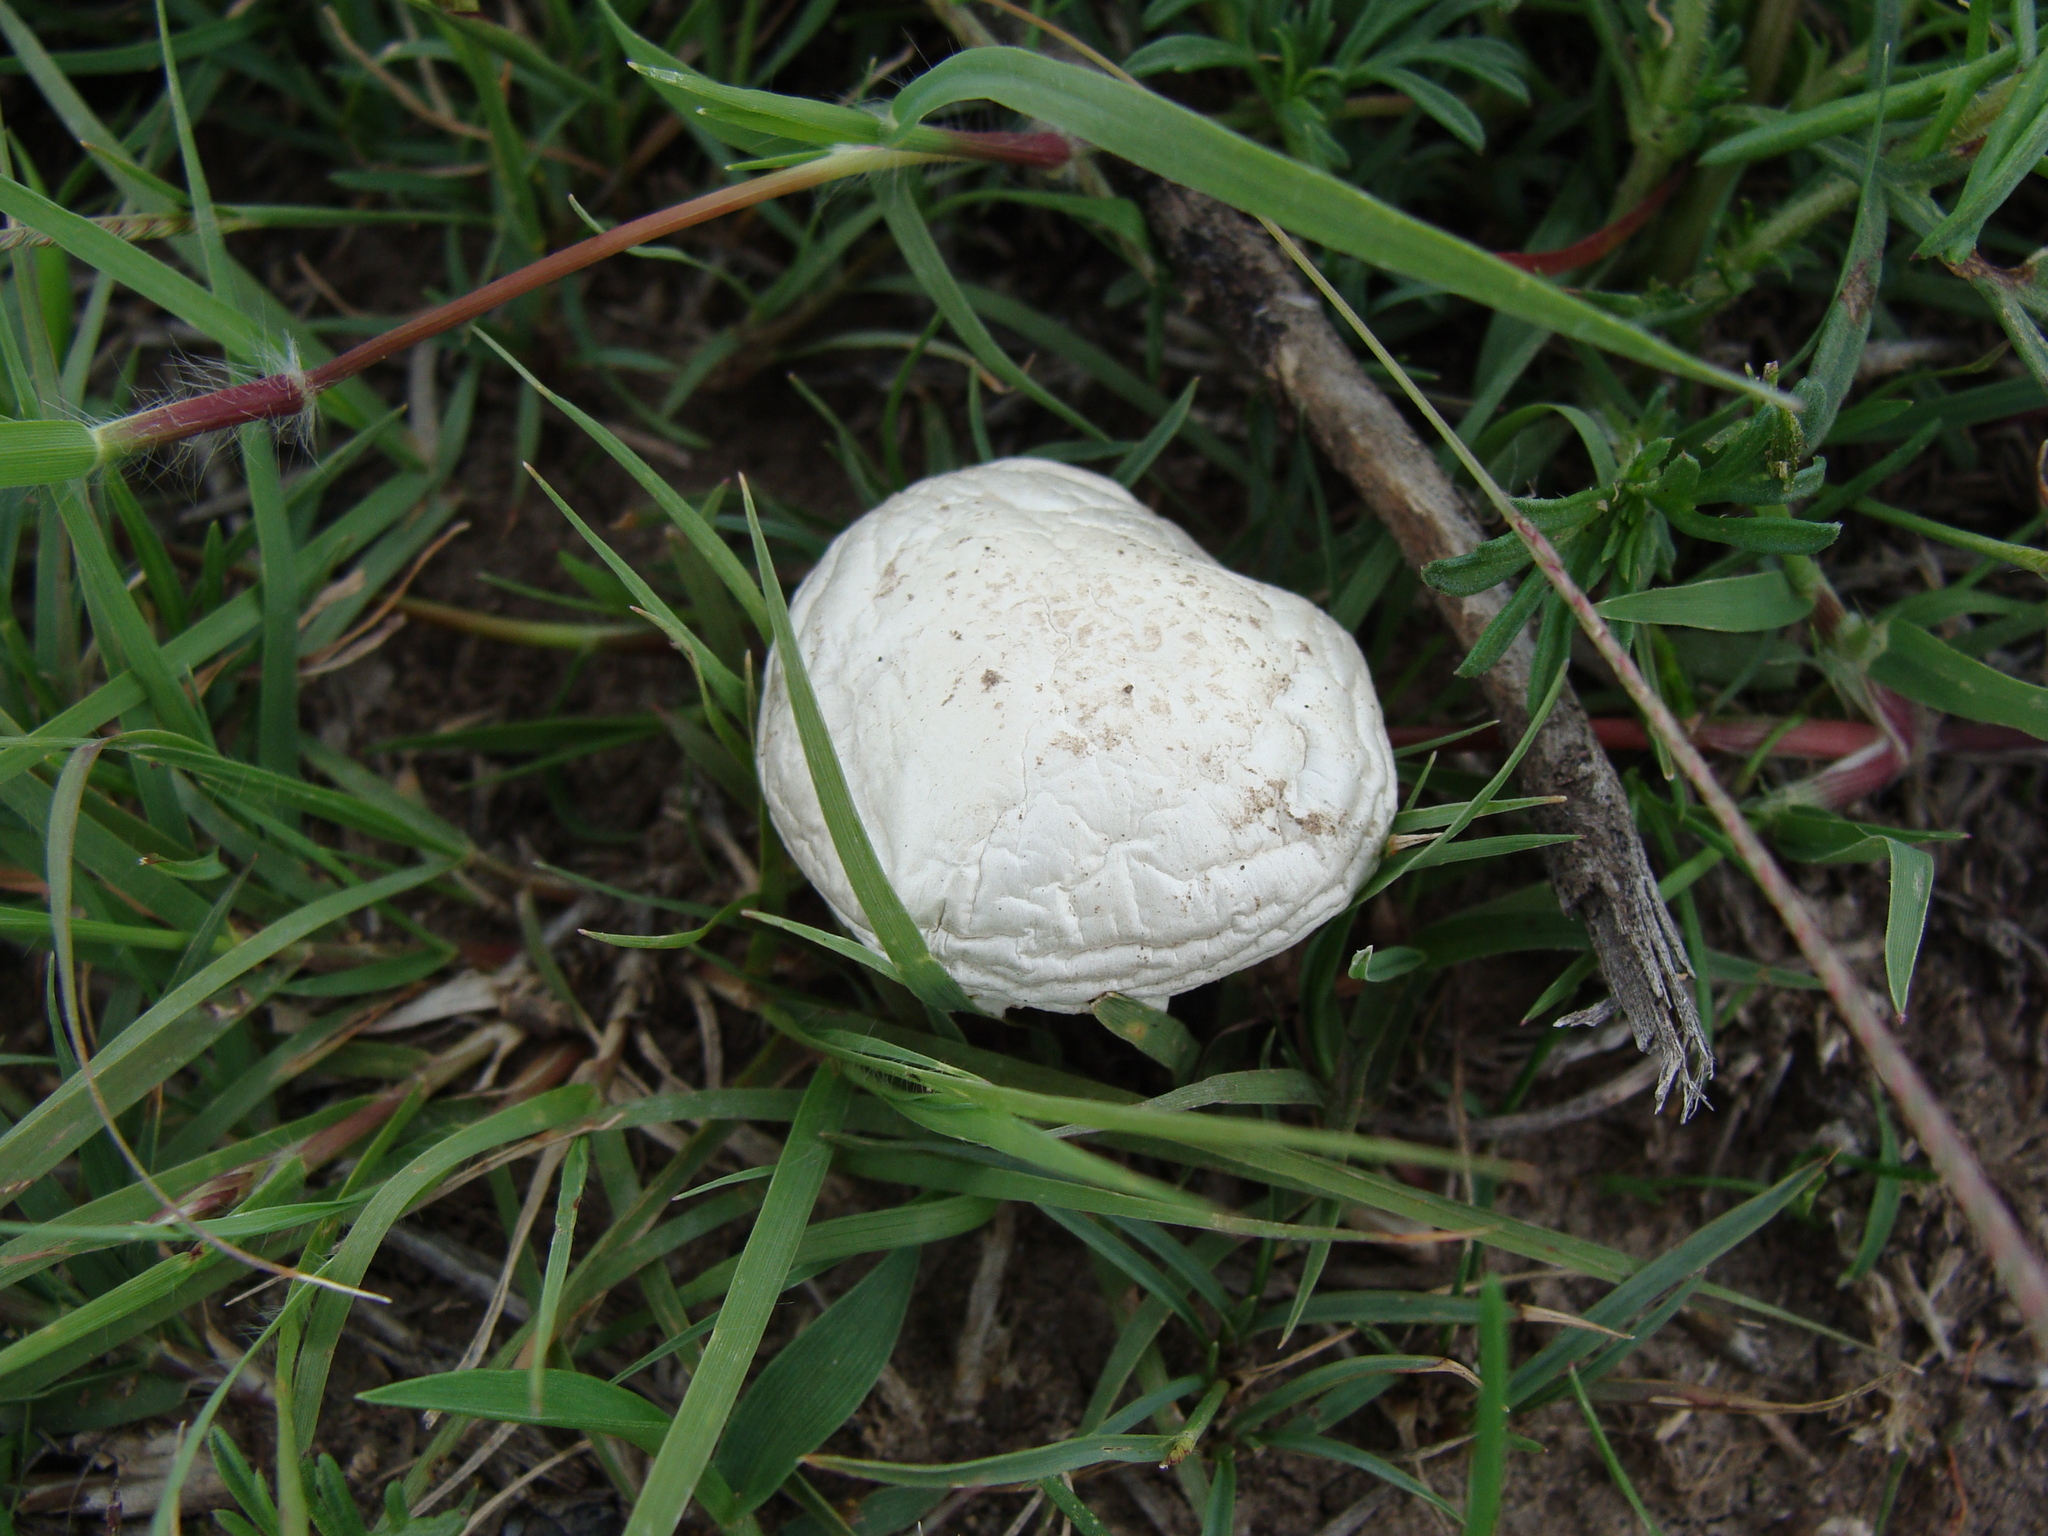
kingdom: Fungi
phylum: Basidiomycota
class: Agaricomycetes
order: Agaricales
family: Agaricaceae
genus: Agaricus
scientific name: Agaricus campestris
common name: Field mushroom
